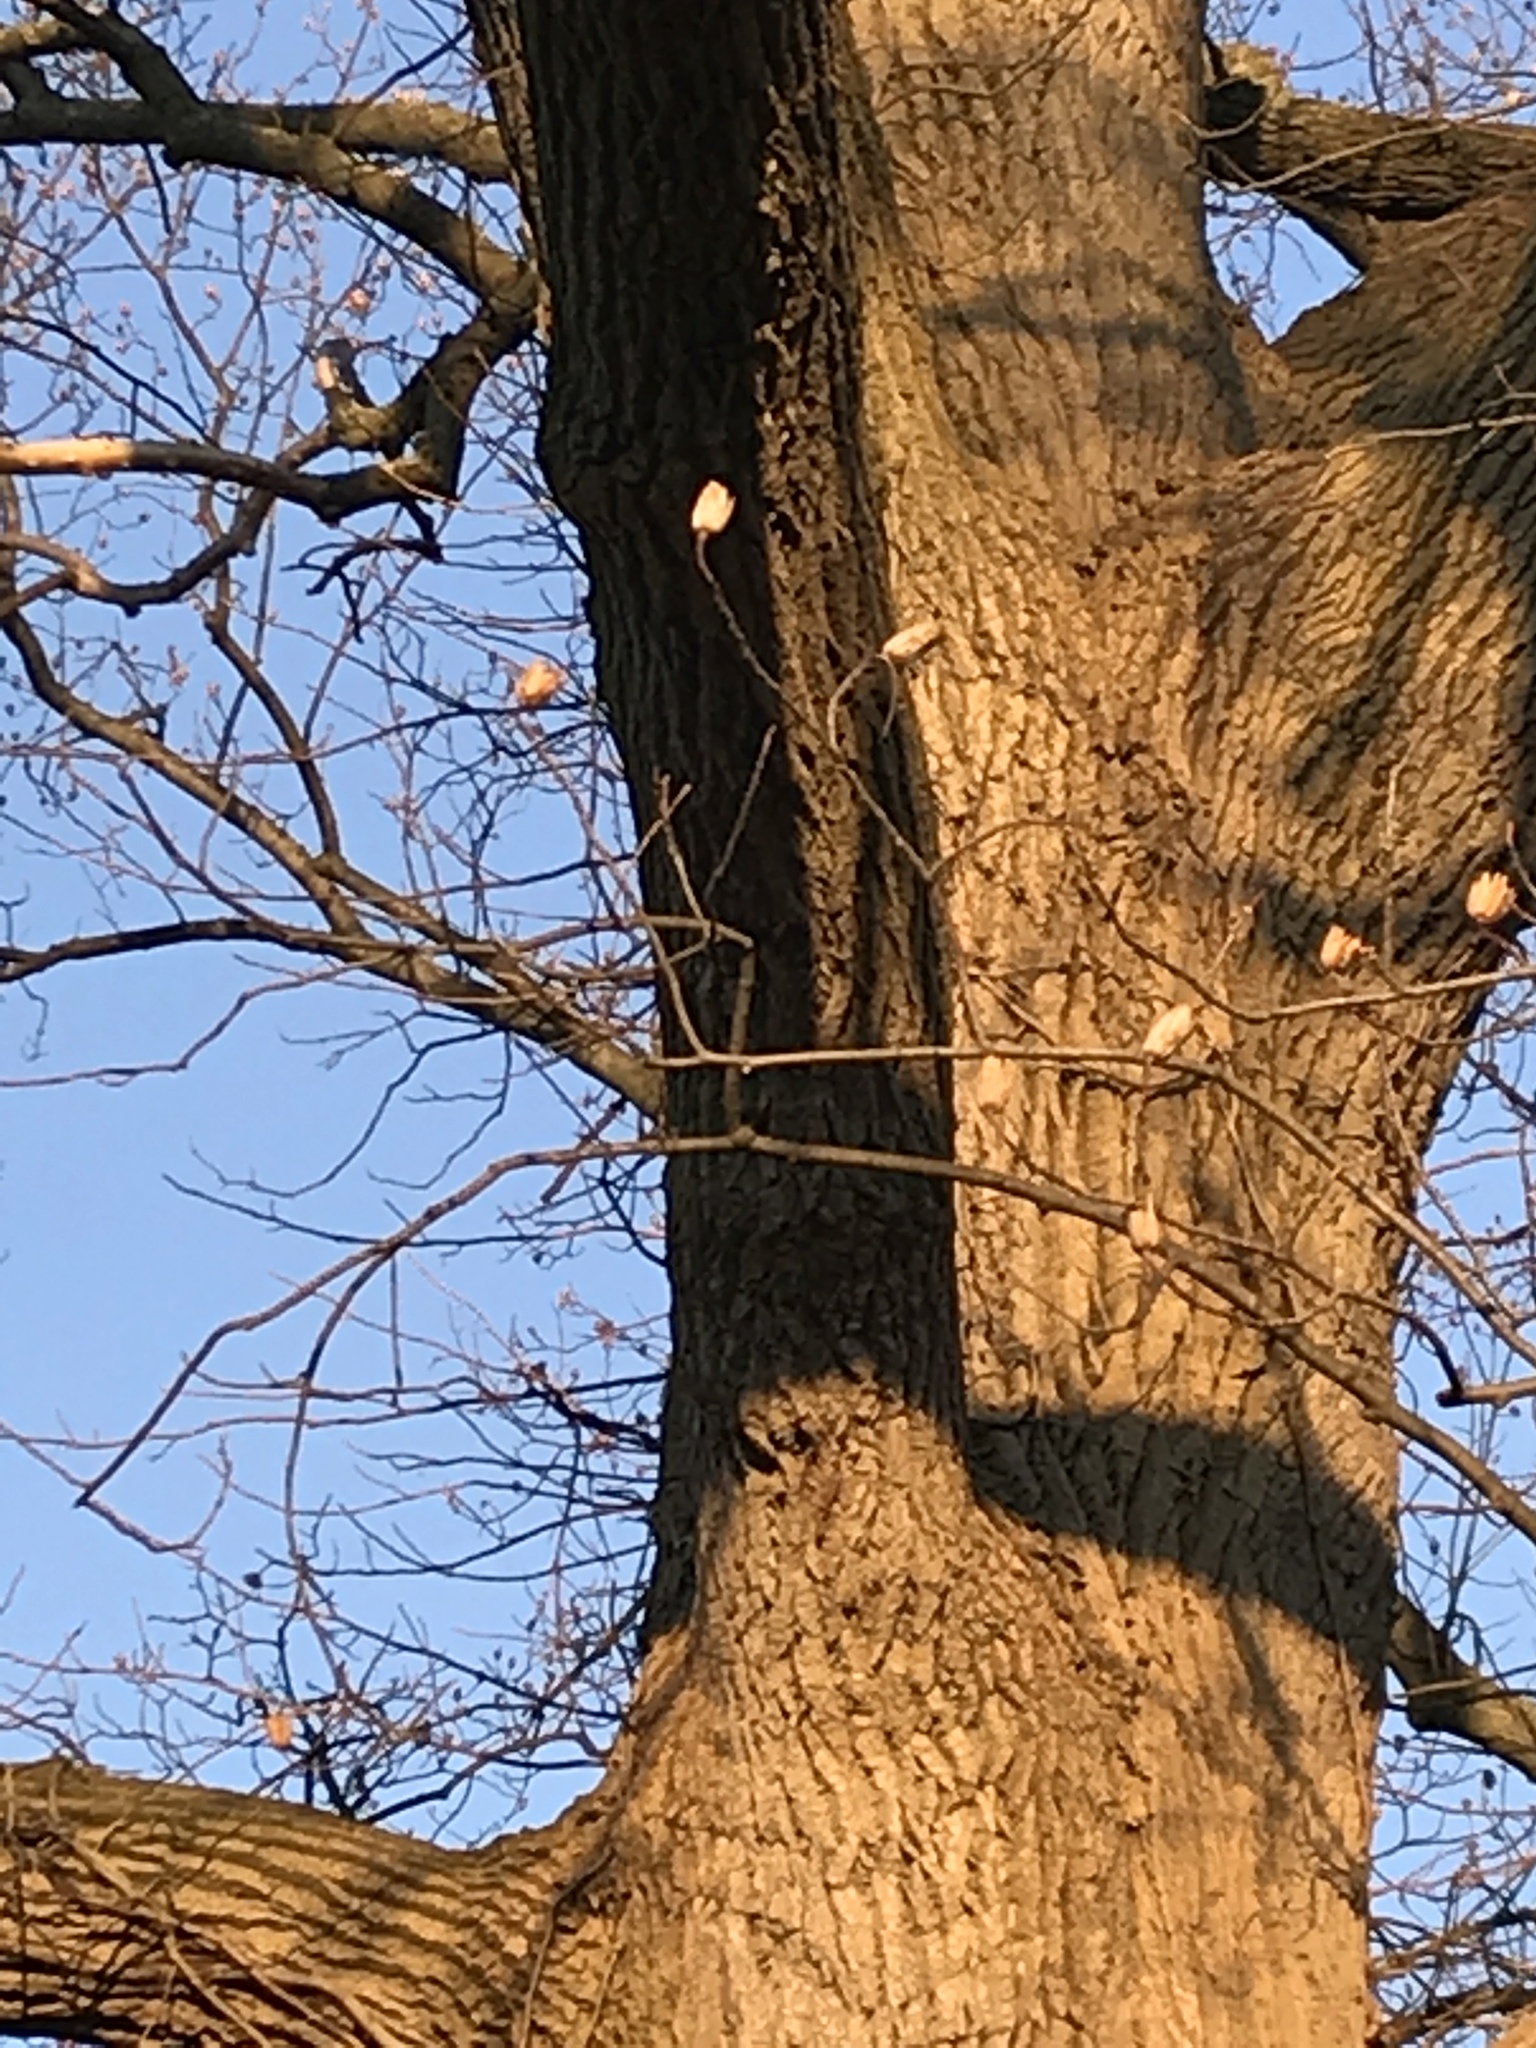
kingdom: Plantae
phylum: Tracheophyta
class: Magnoliopsida
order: Magnoliales
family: Magnoliaceae
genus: Liriodendron
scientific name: Liriodendron tulipifera
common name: Tulip tree
